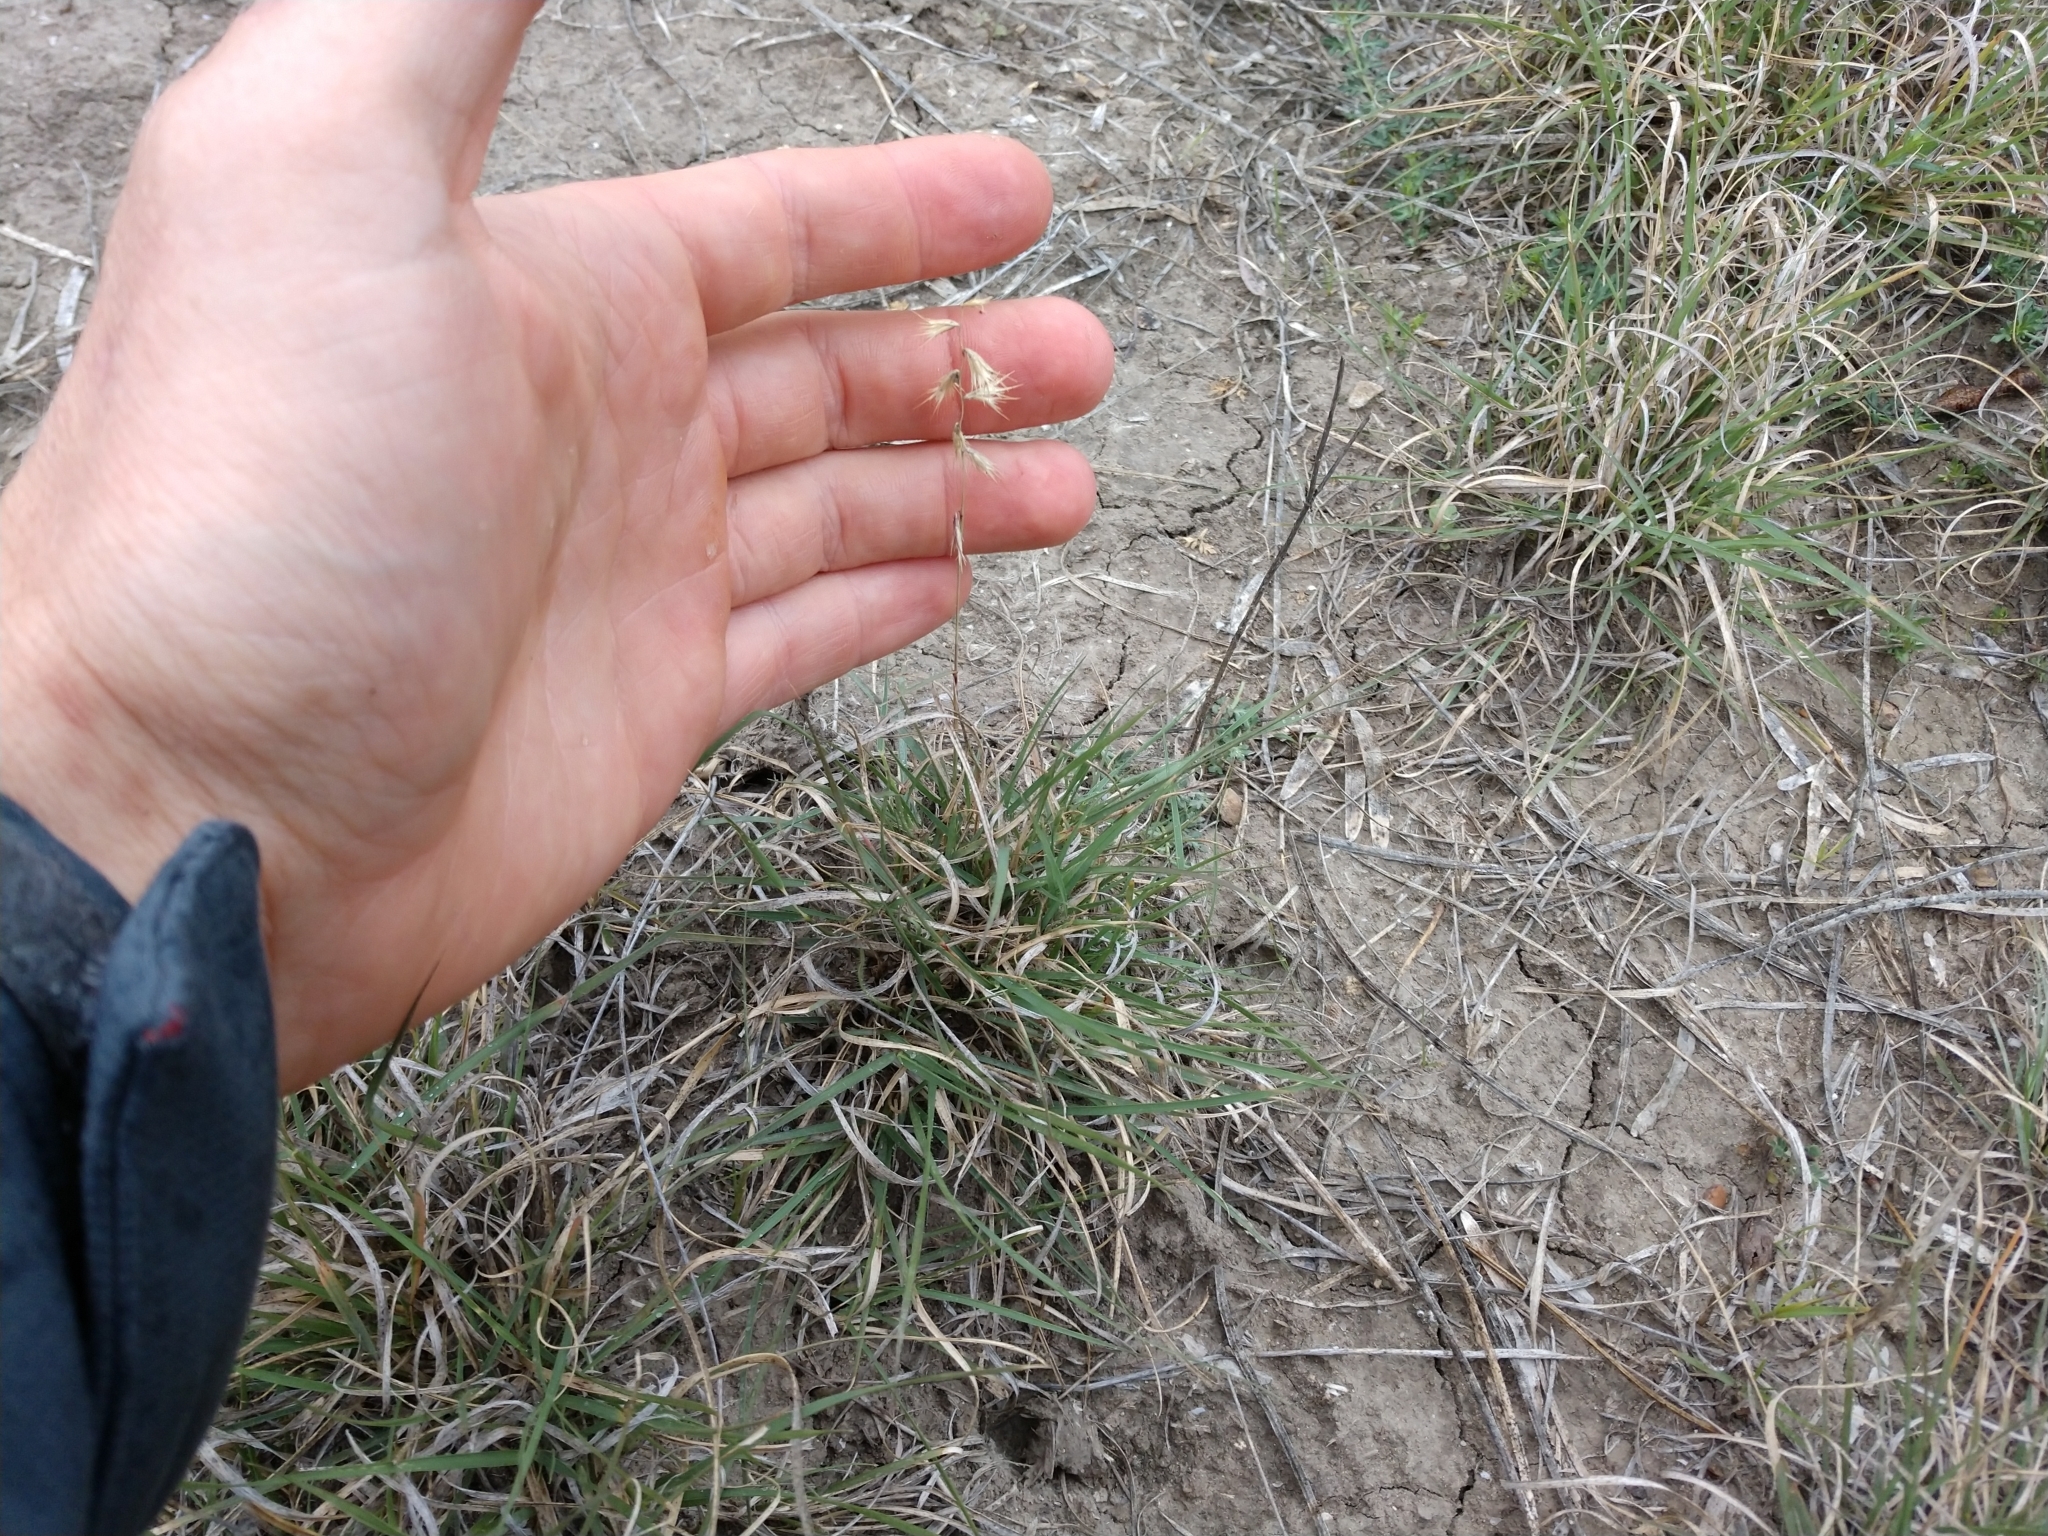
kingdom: Plantae
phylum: Tracheophyta
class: Liliopsida
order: Poales
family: Poaceae
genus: Bouteloua
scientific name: Bouteloua rigidiseta
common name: Texas grama
